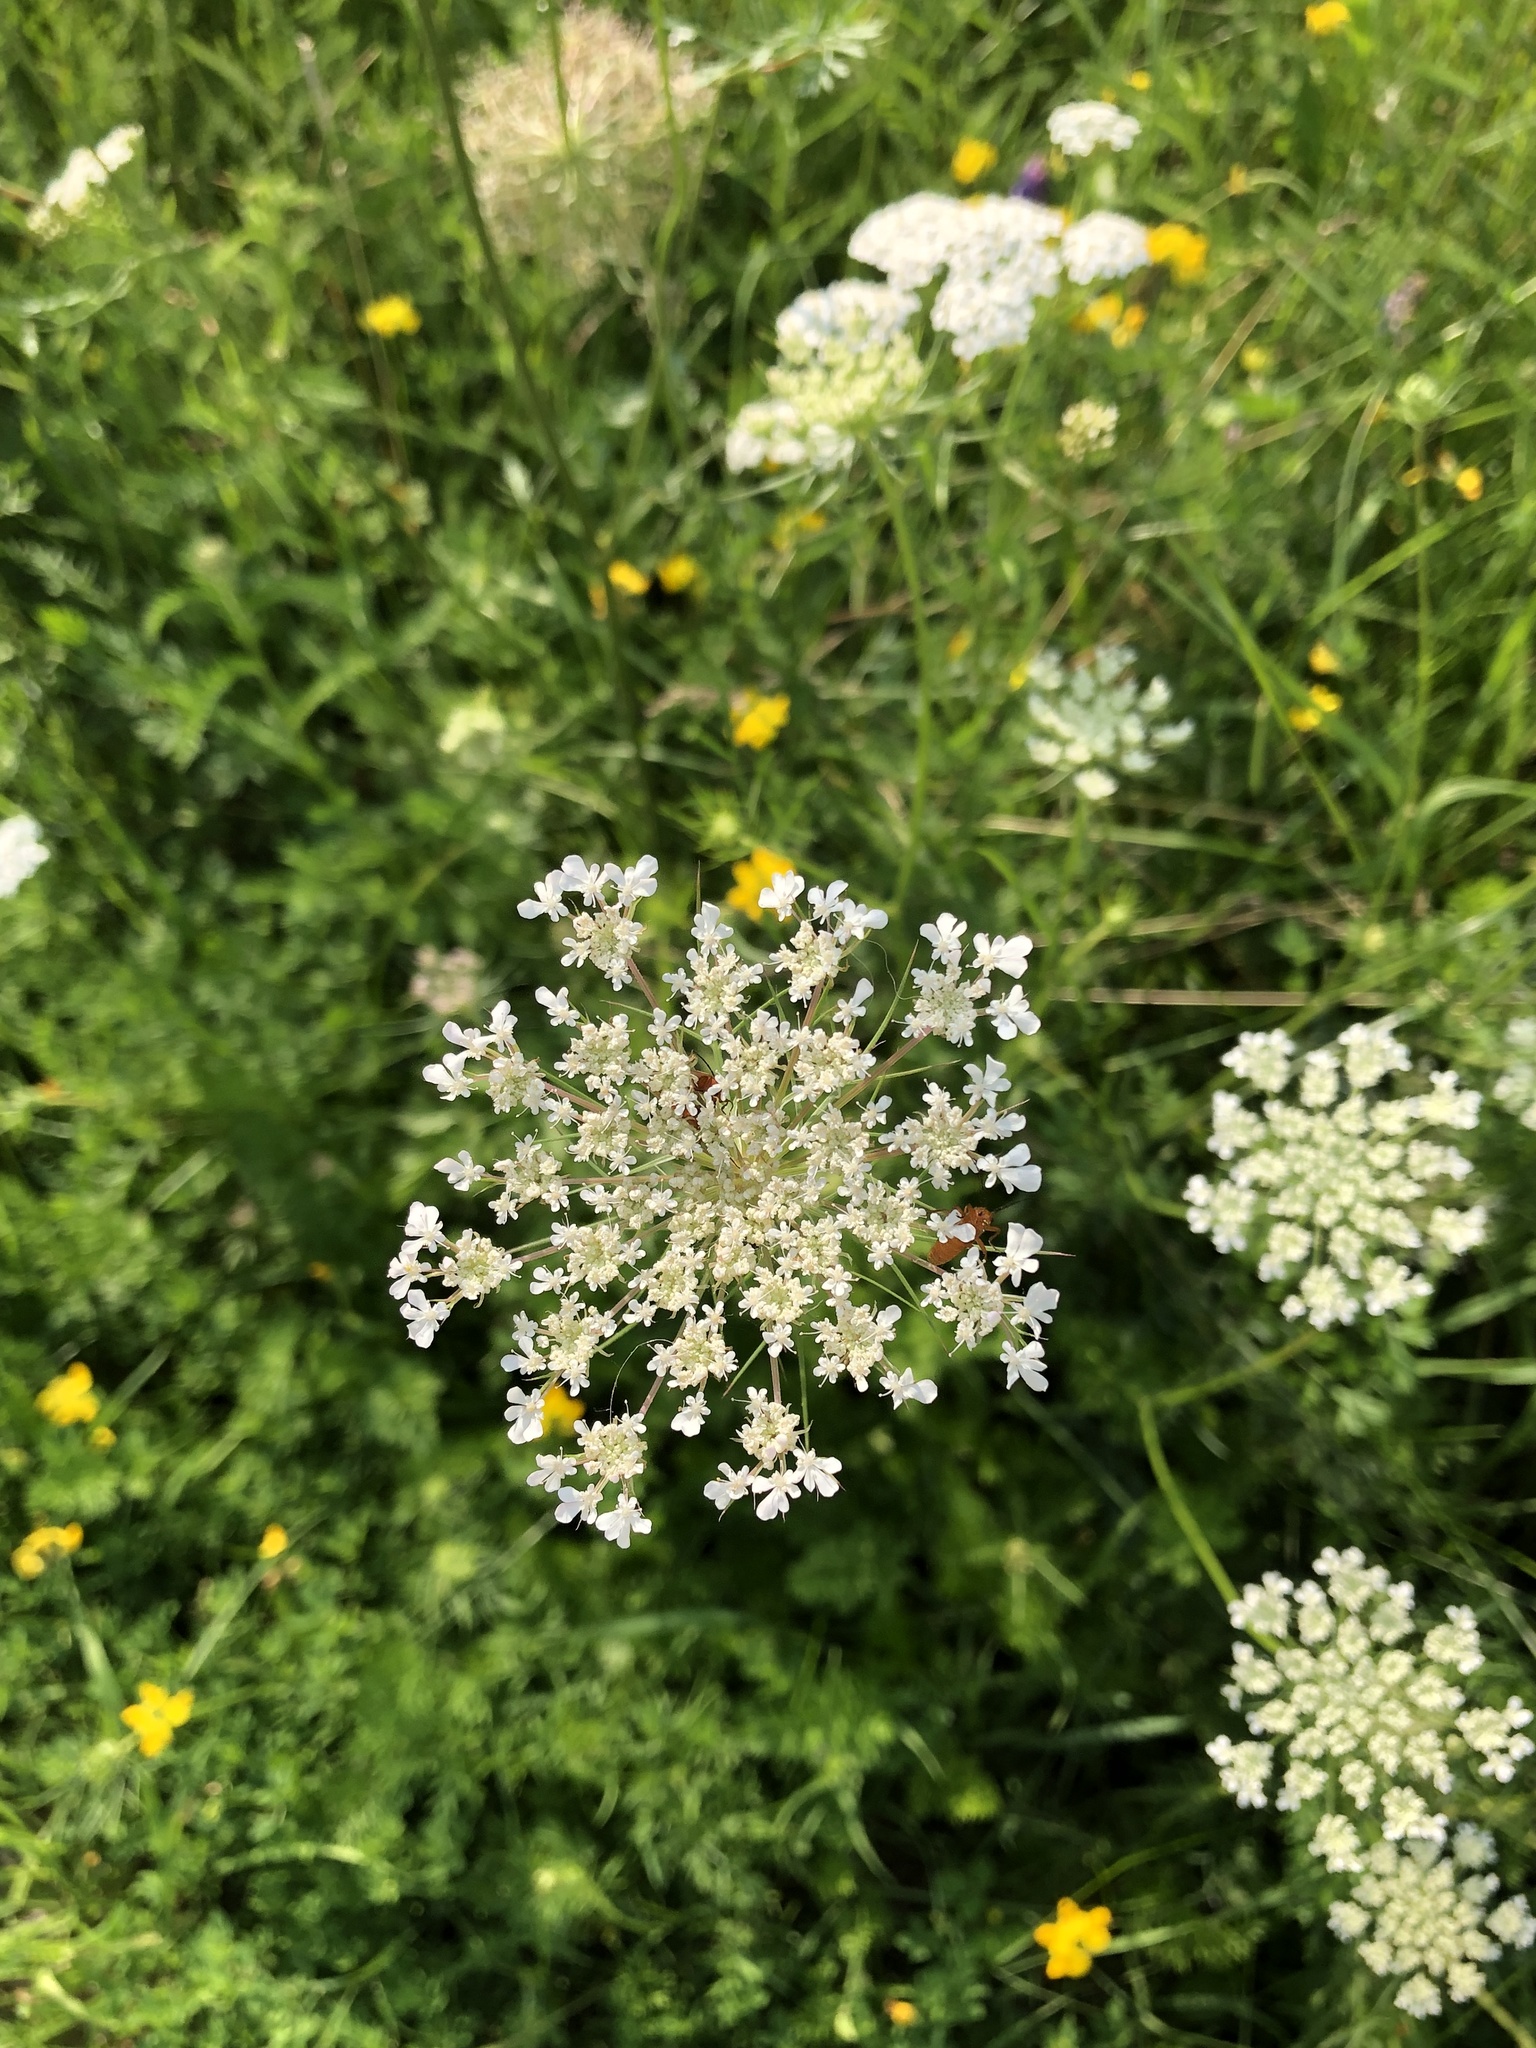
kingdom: Plantae
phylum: Tracheophyta
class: Magnoliopsida
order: Apiales
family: Apiaceae
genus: Daucus
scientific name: Daucus carota
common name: Wild carrot
